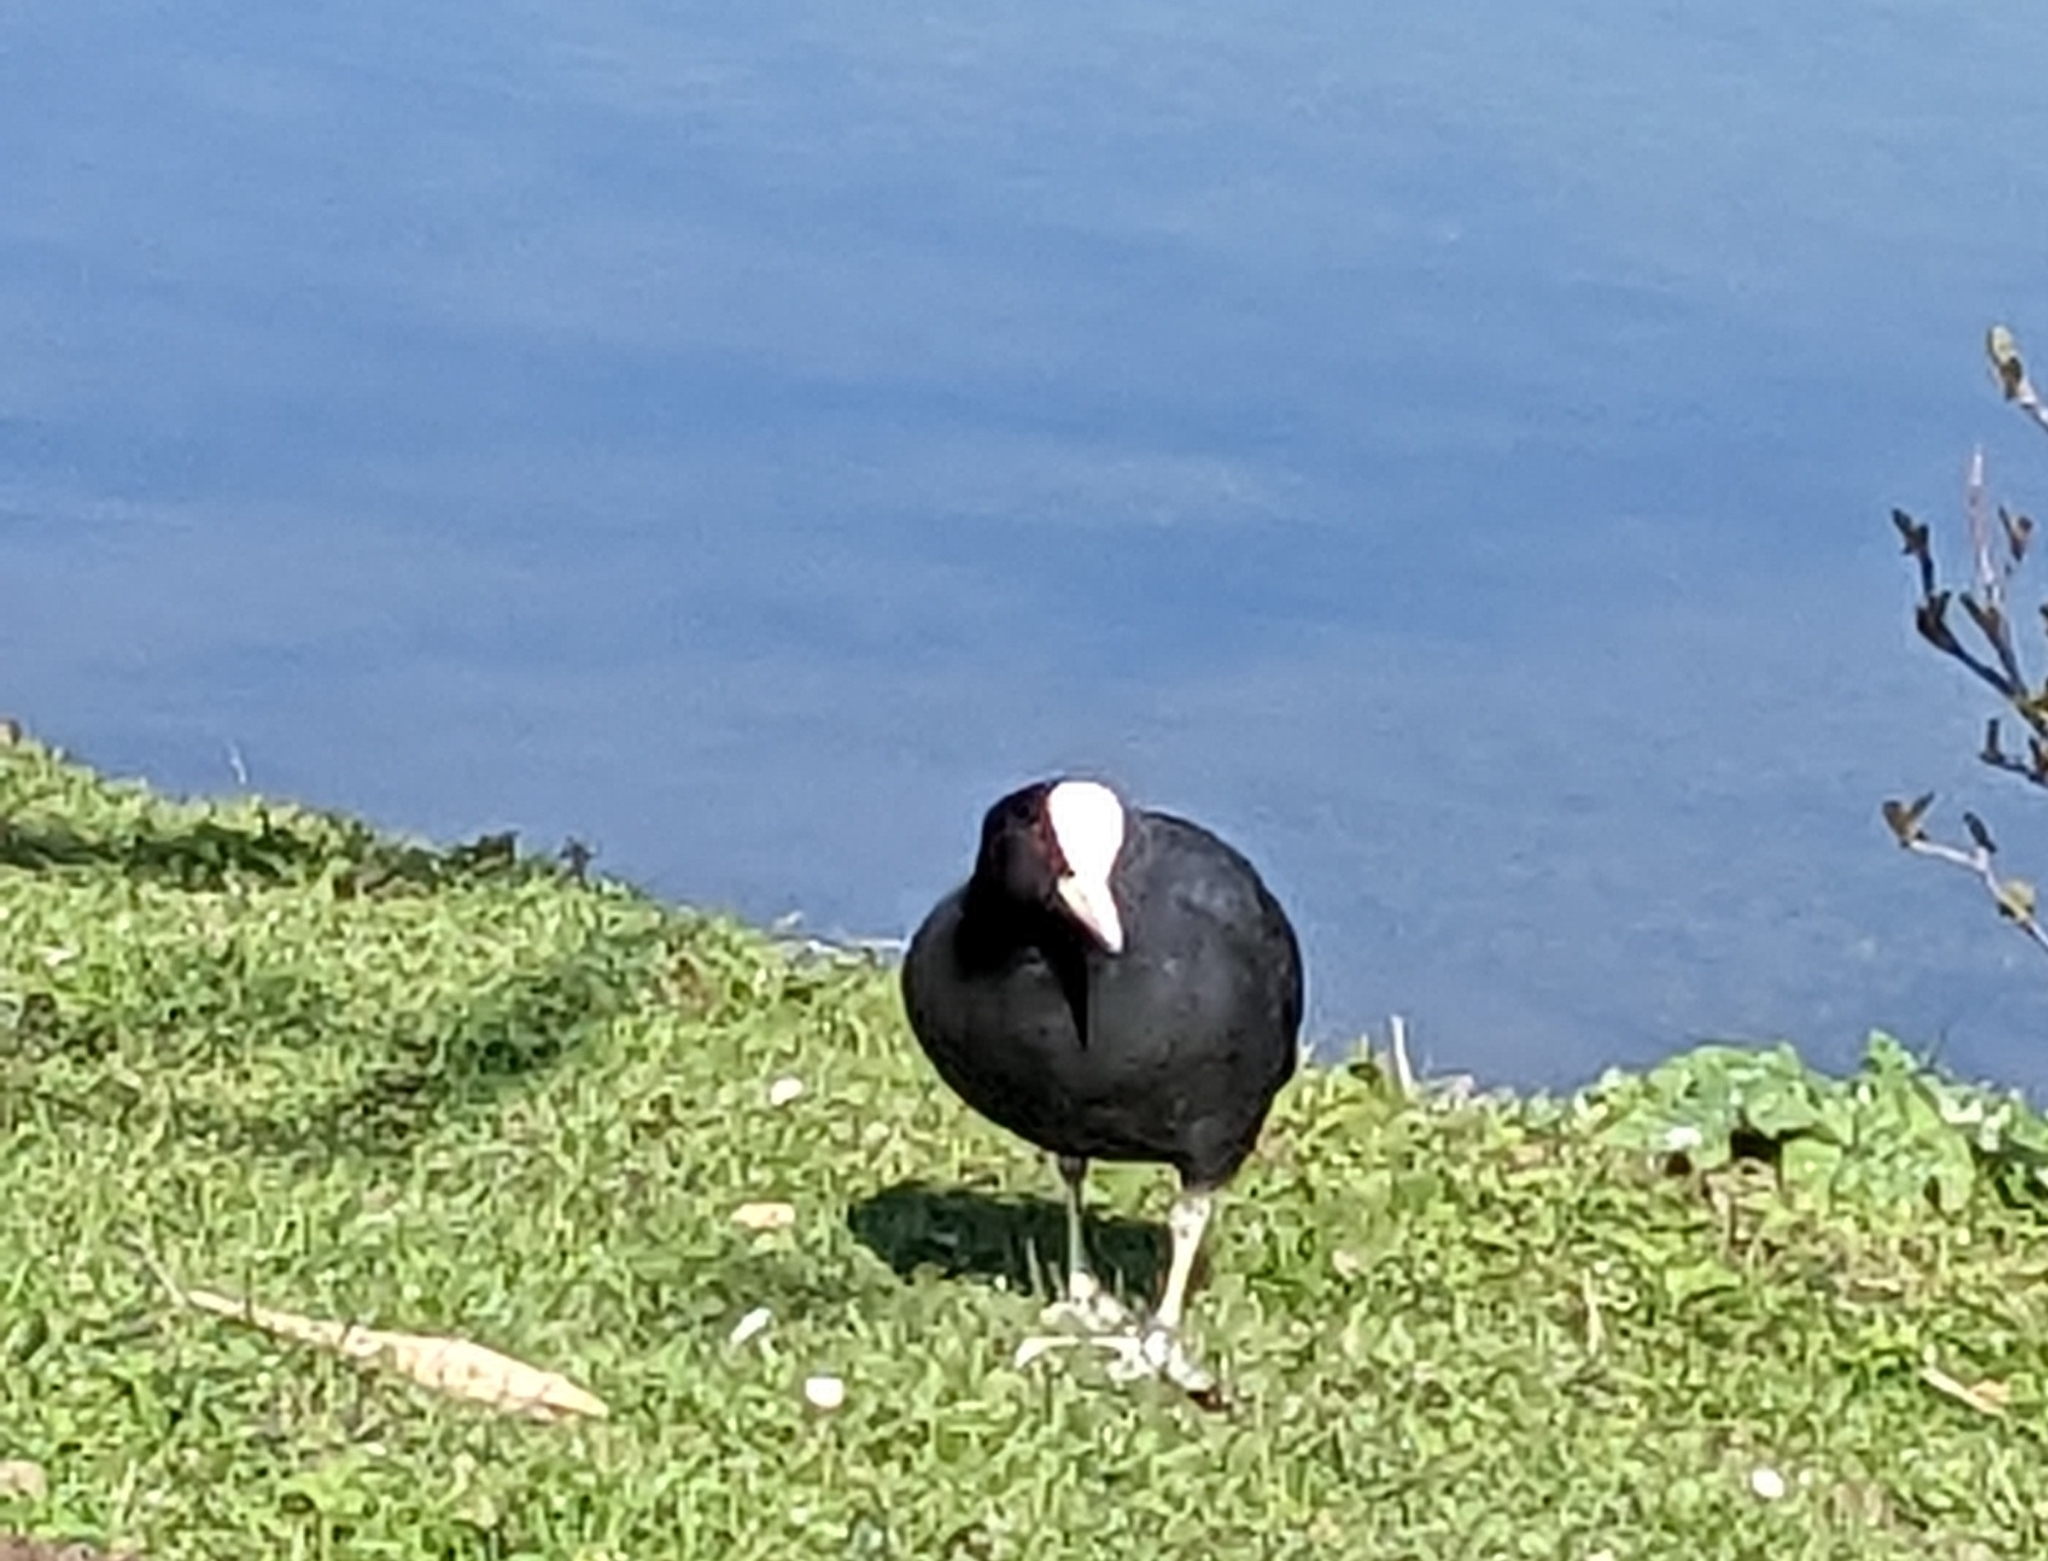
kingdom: Animalia
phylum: Chordata
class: Aves
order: Gruiformes
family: Rallidae
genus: Fulica
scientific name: Fulica atra
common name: Eurasian coot
